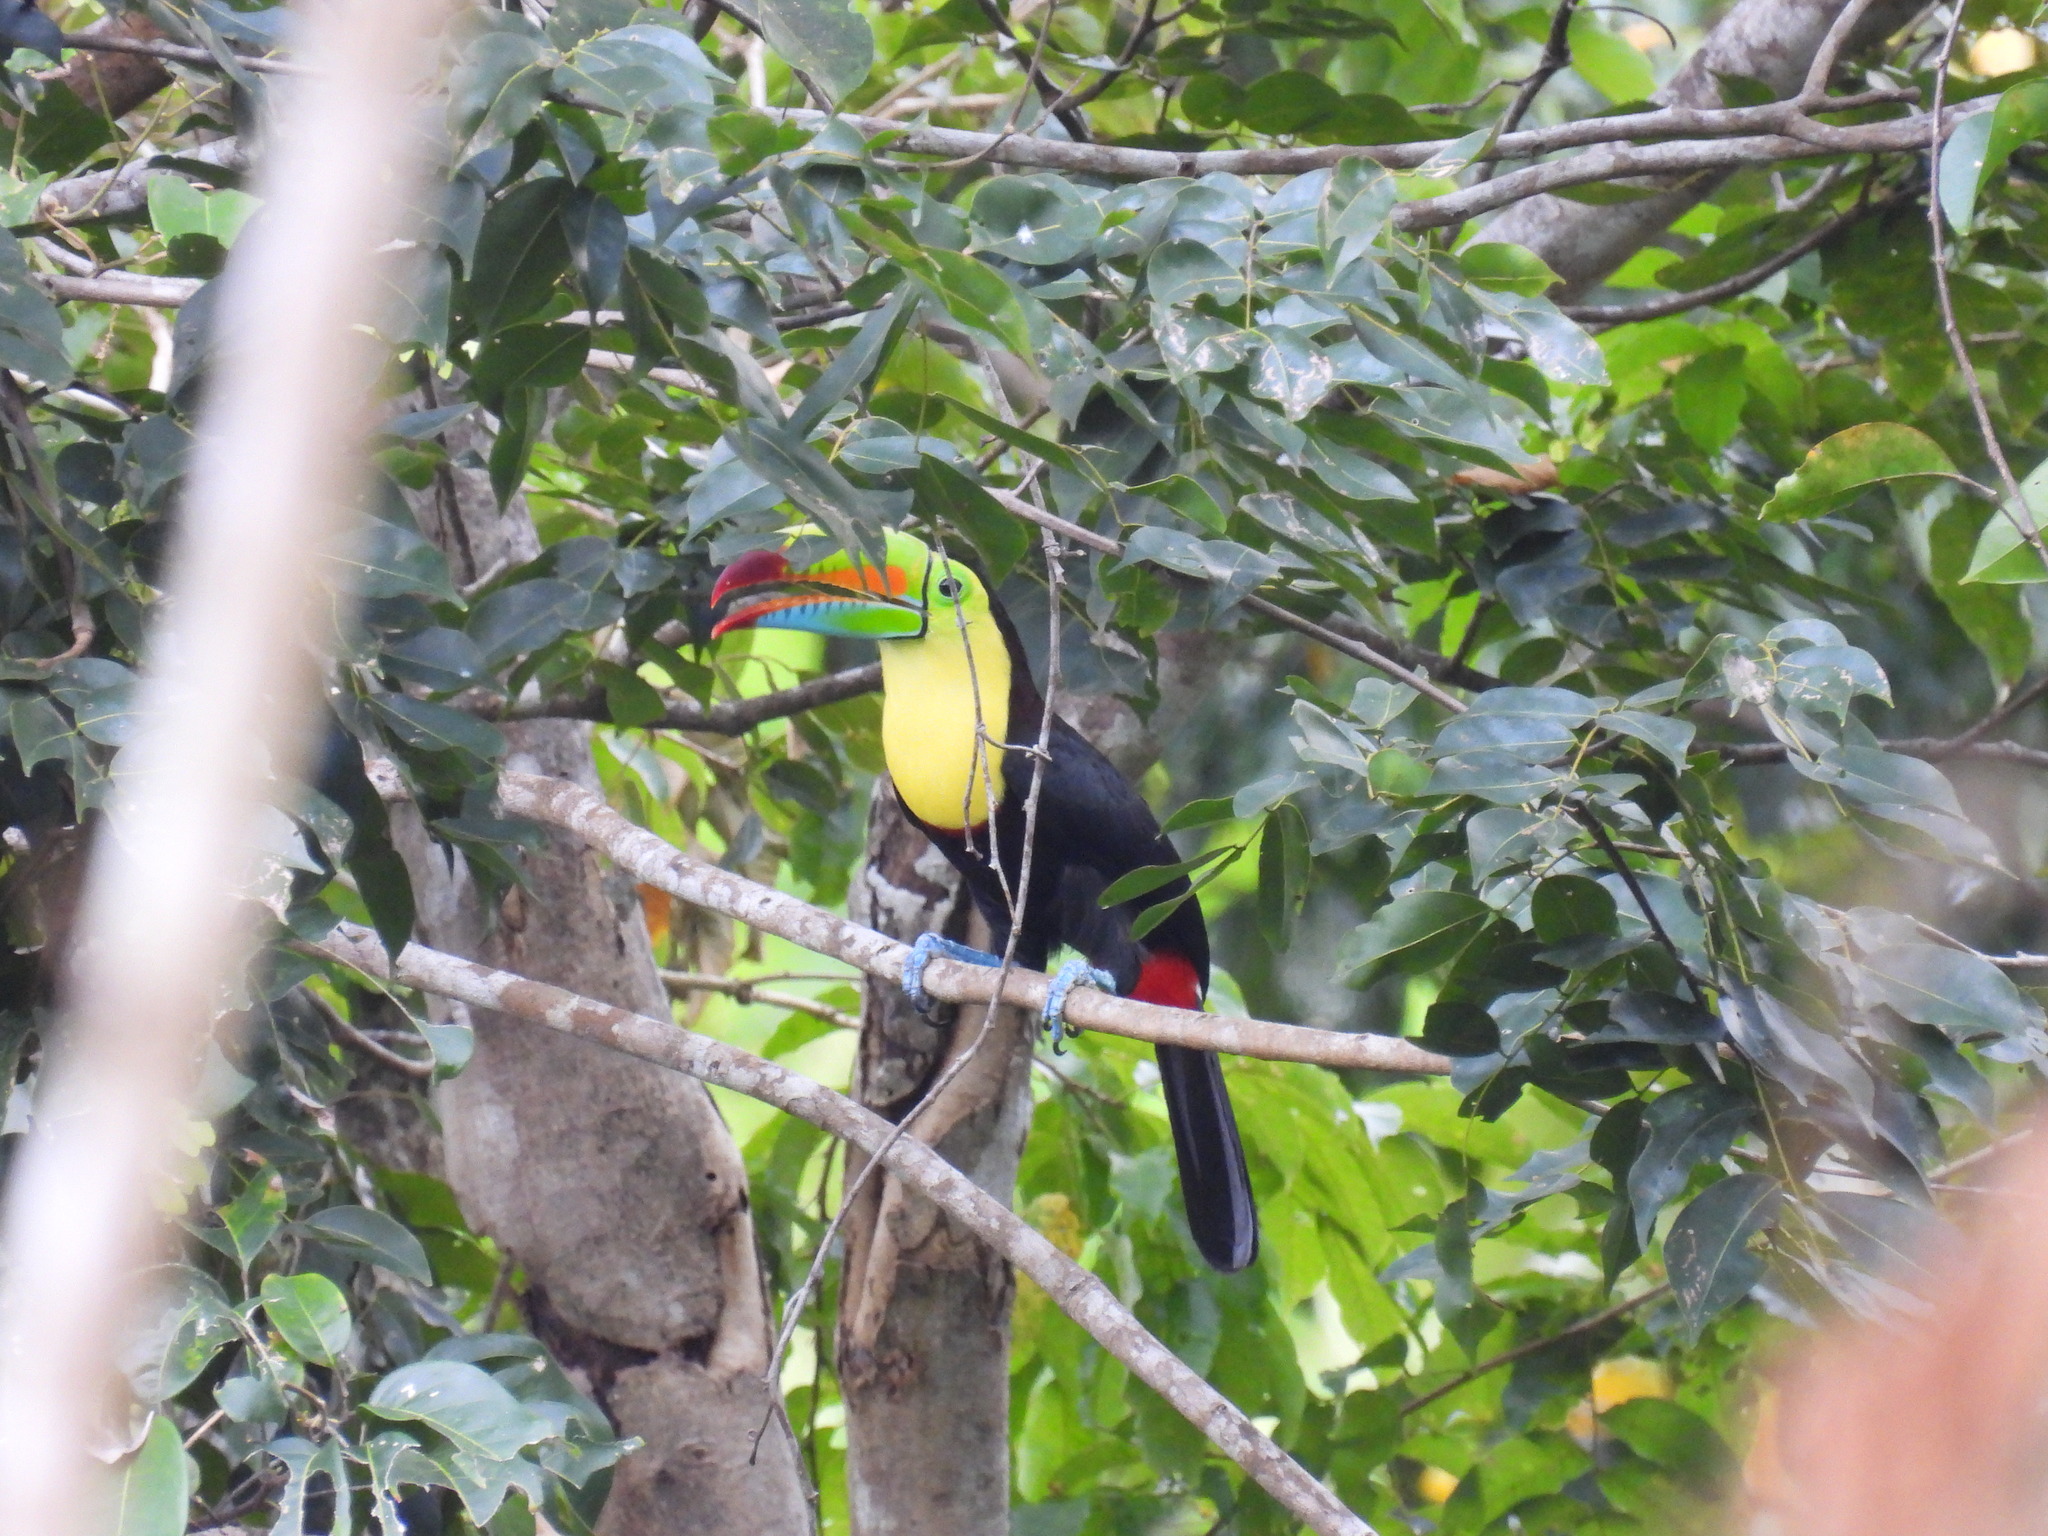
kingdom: Animalia
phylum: Chordata
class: Aves
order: Piciformes
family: Ramphastidae
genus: Ramphastos
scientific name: Ramphastos sulfuratus
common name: Keel-billed toucan
